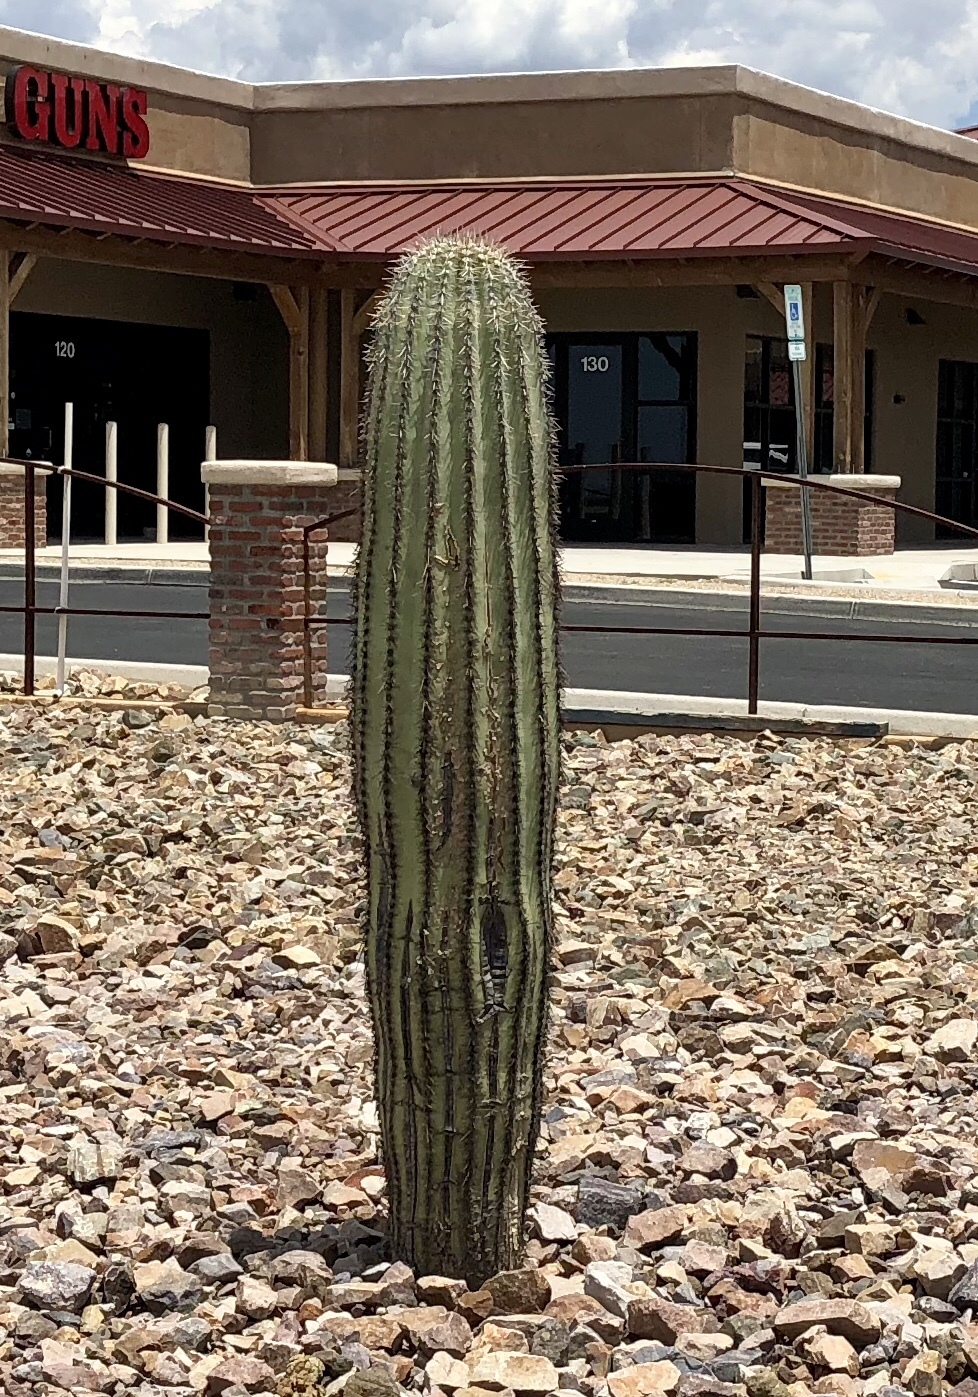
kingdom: Plantae
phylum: Tracheophyta
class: Magnoliopsida
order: Caryophyllales
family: Cactaceae
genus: Carnegiea
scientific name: Carnegiea gigantea
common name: Saguaro
